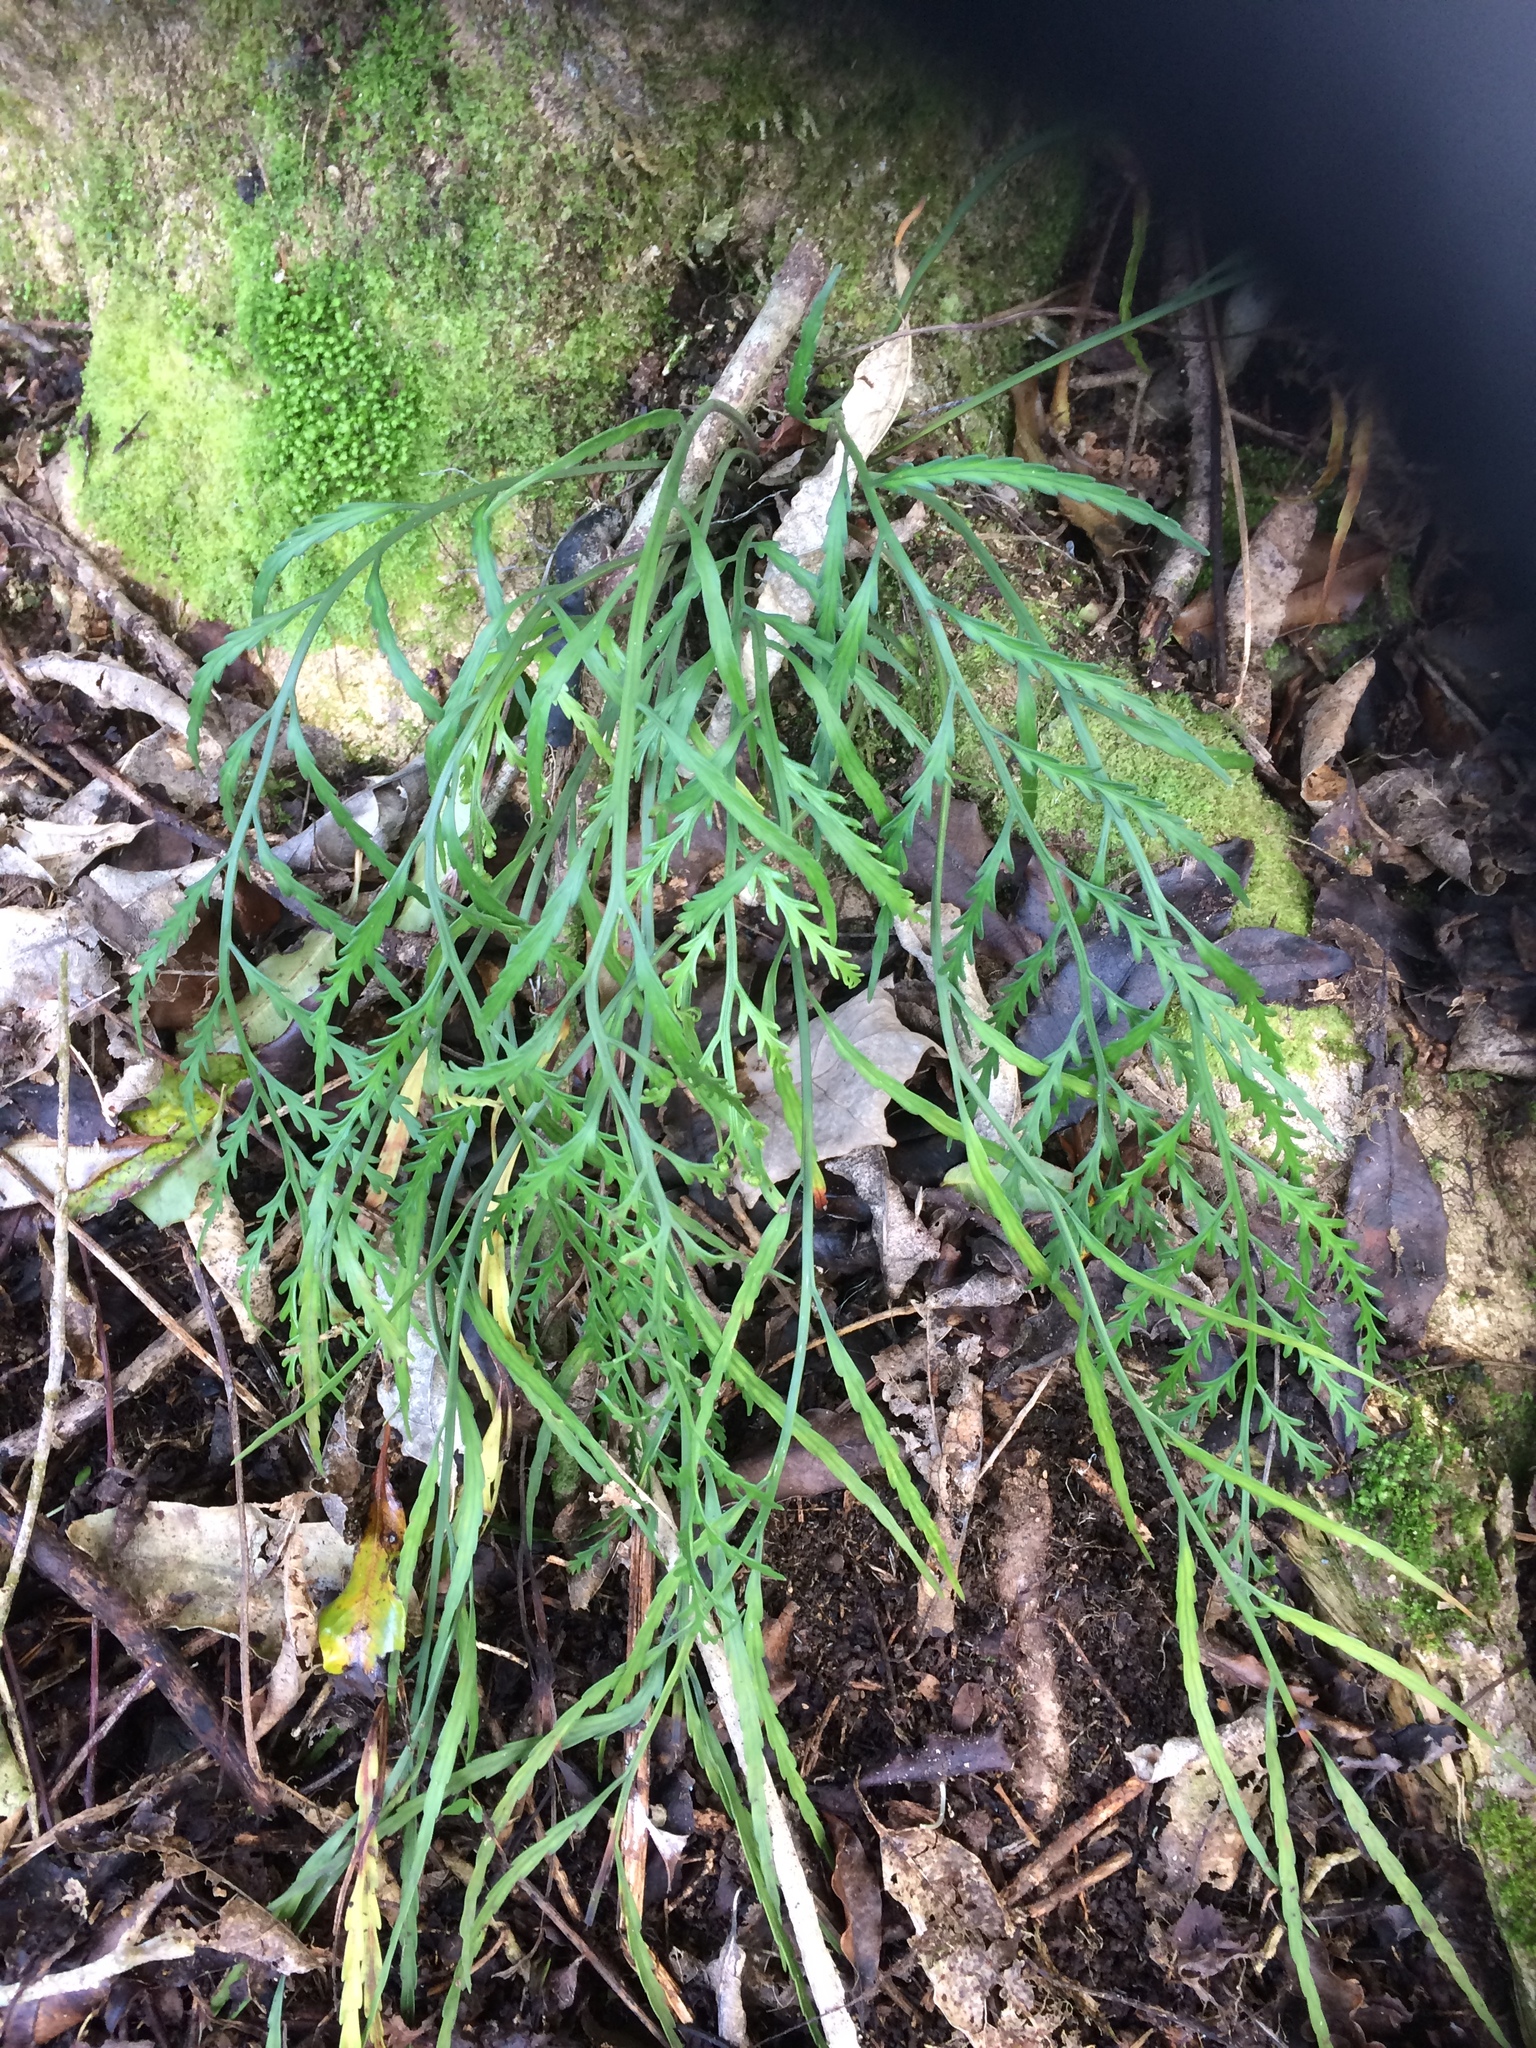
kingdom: Plantae
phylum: Tracheophyta
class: Polypodiopsida
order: Polypodiales
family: Aspleniaceae
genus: Asplenium
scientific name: Asplenium flaccidum
